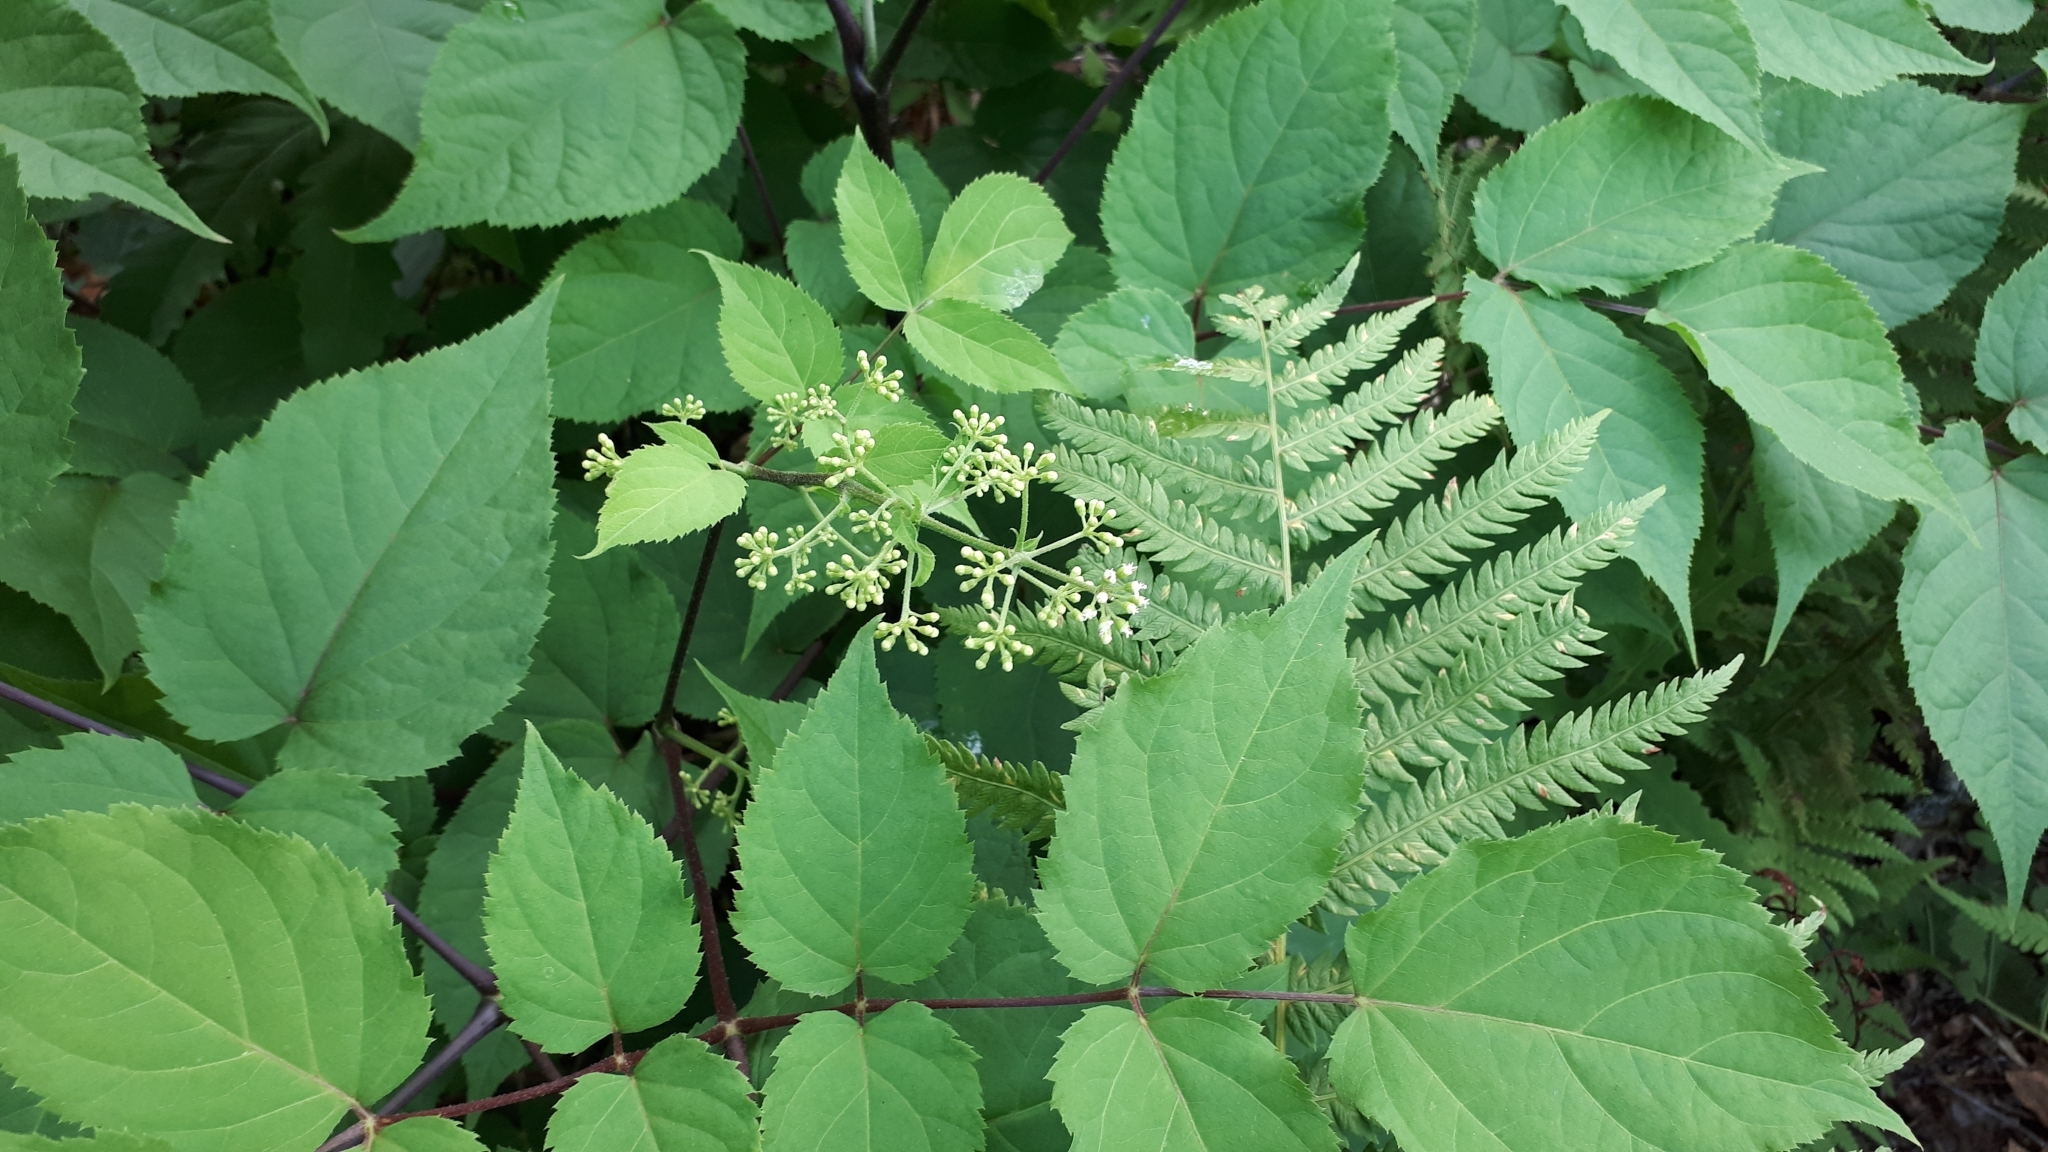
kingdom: Plantae
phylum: Tracheophyta
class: Magnoliopsida
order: Apiales
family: Araliaceae
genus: Aralia
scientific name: Aralia racemosa
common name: American-spikenard
